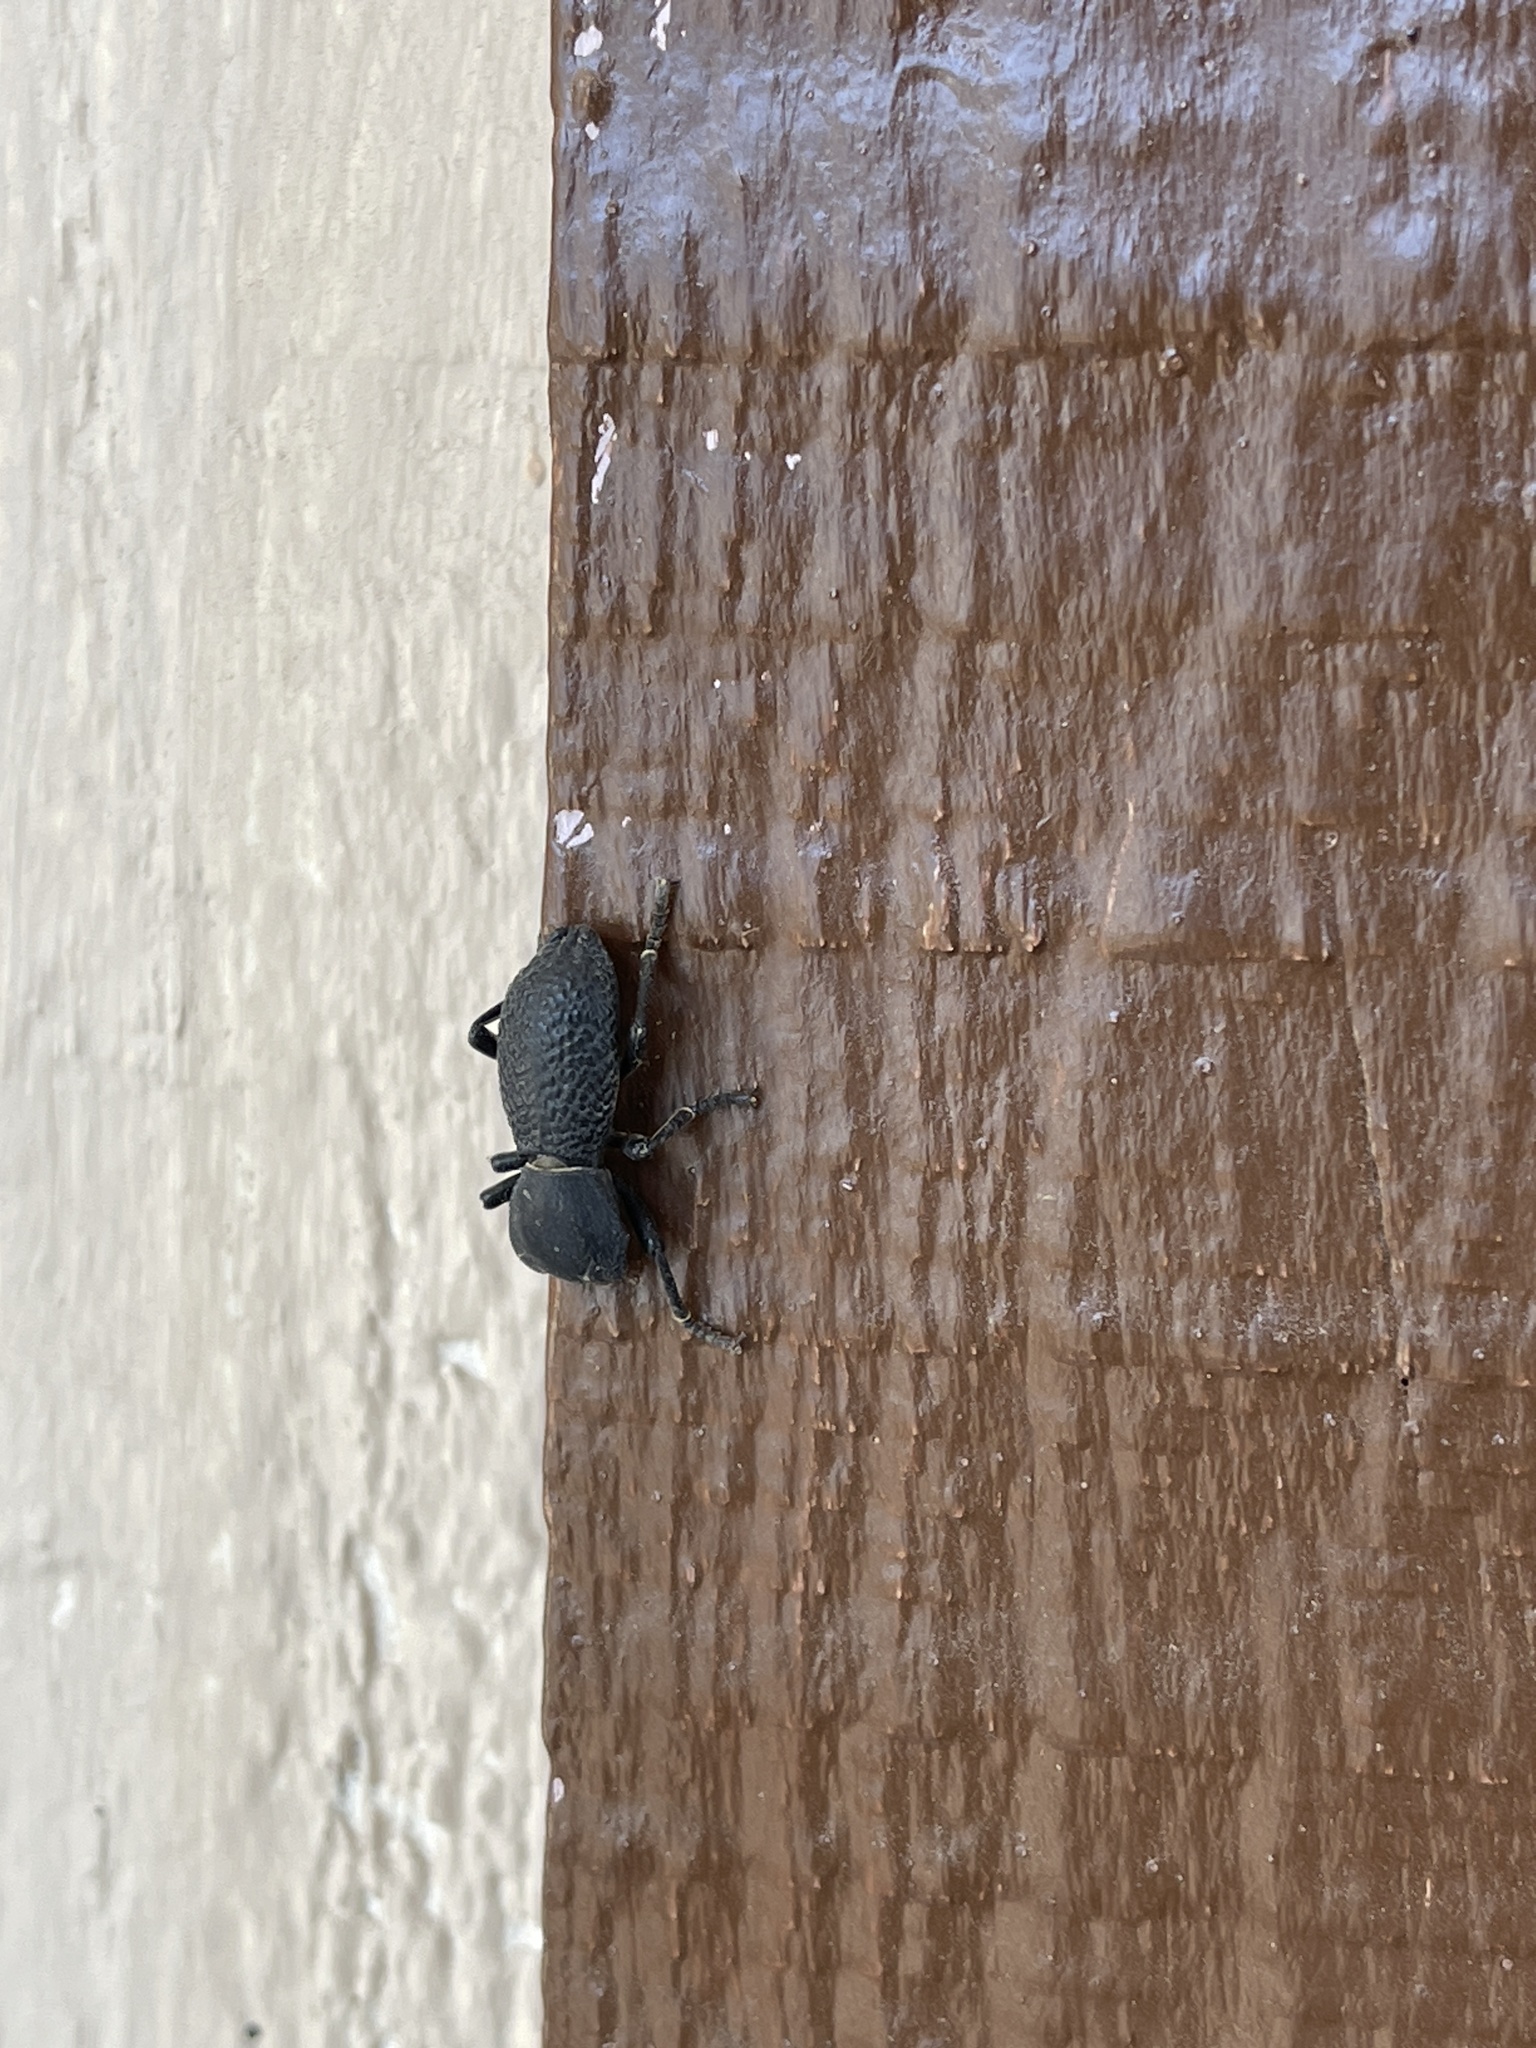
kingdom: Animalia
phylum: Arthropoda
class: Insecta
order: Coleoptera
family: Zopheridae
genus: Zopherus
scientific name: Zopherus concolor
